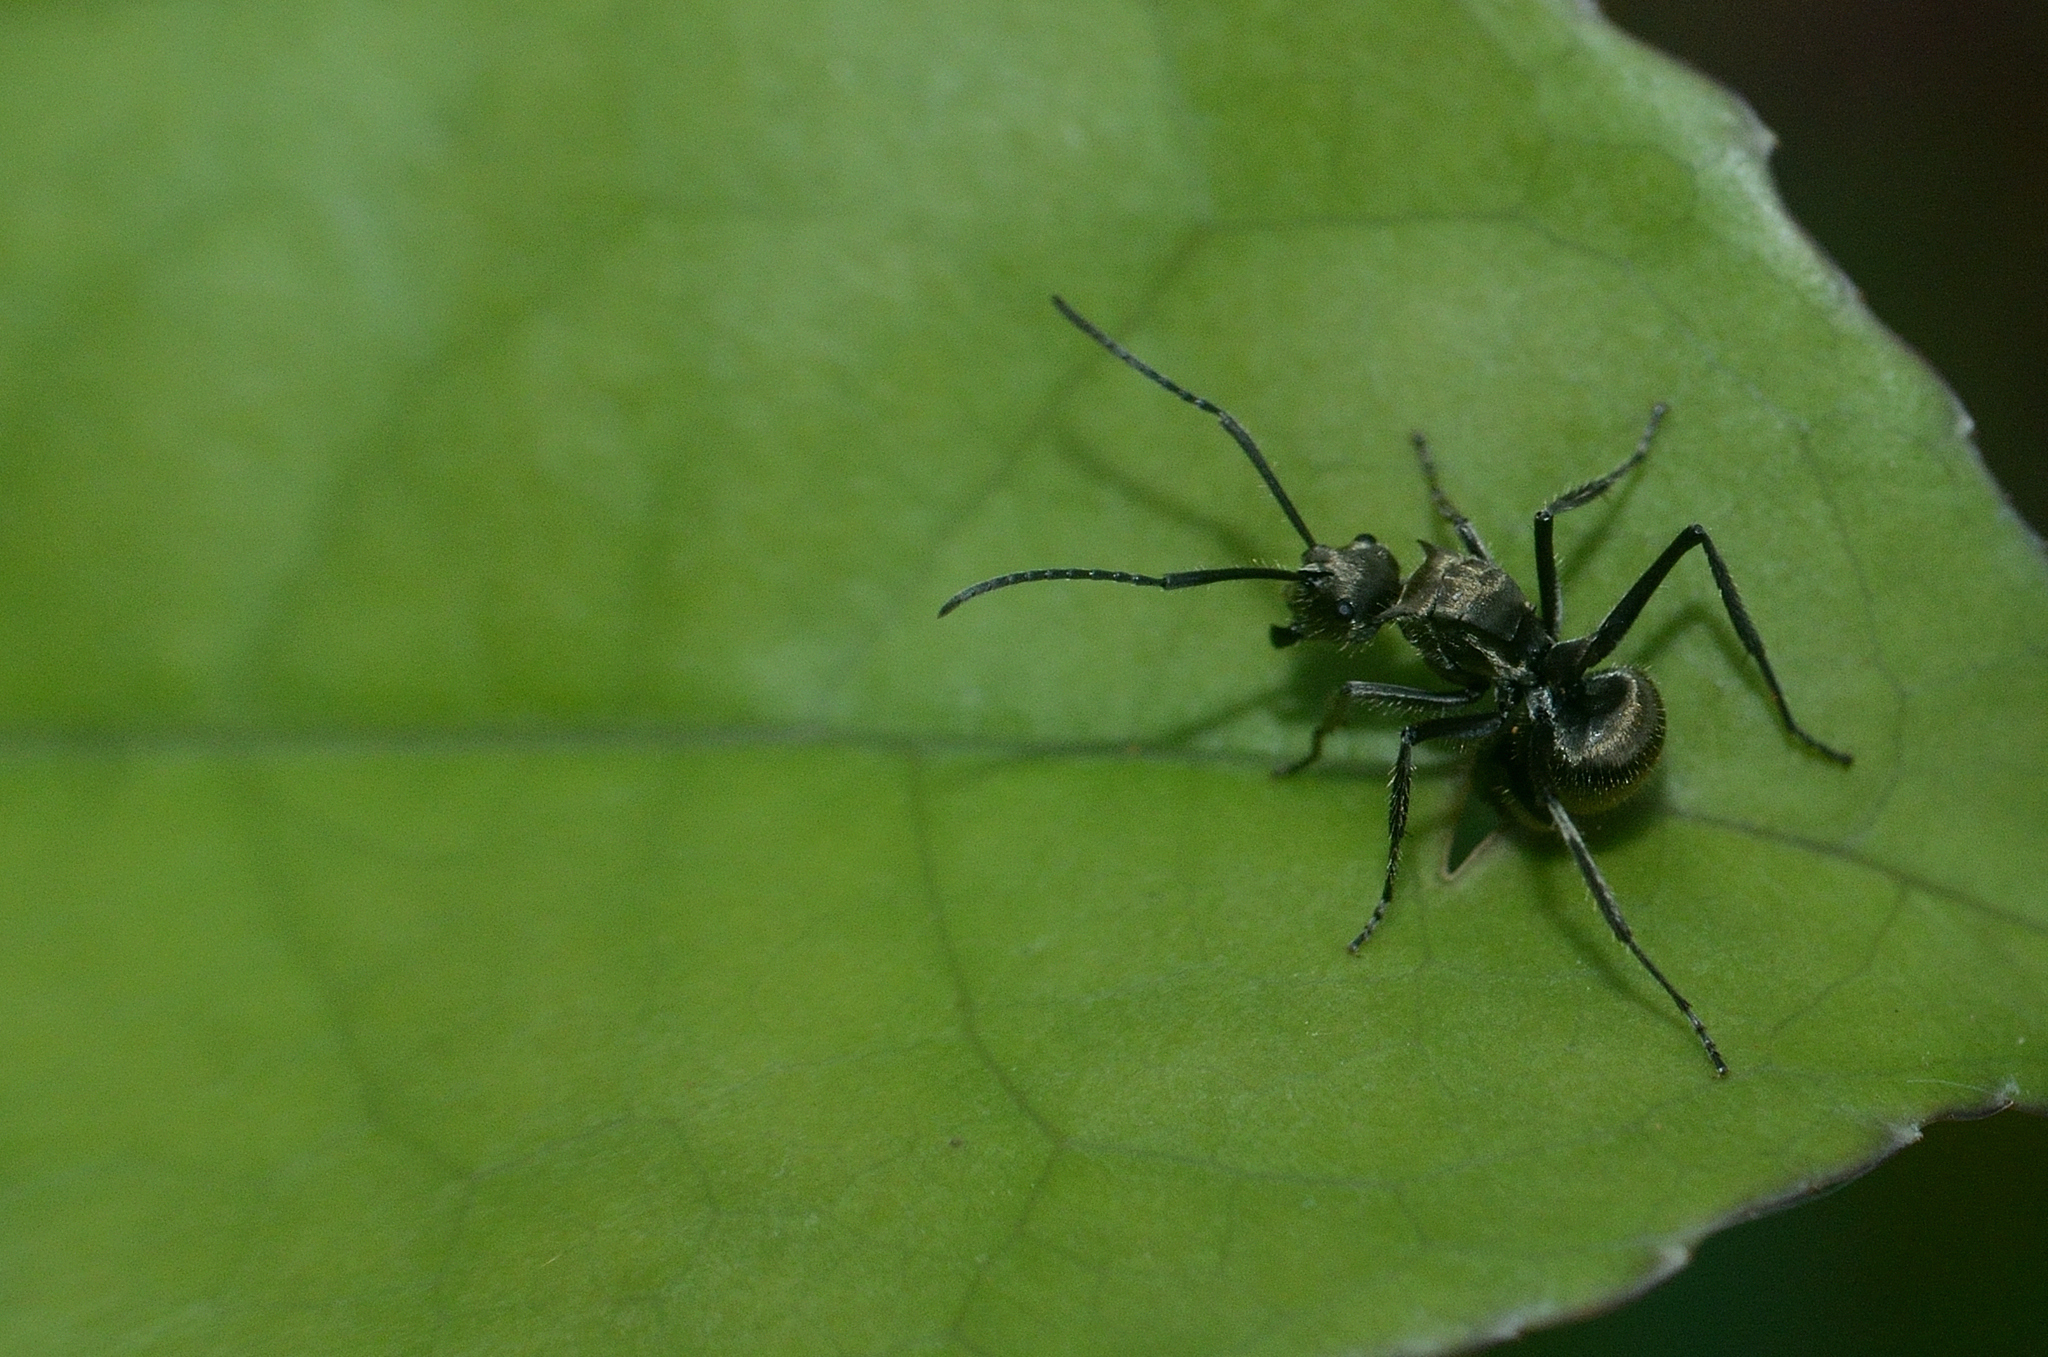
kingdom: Animalia
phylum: Arthropoda
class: Insecta
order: Hymenoptera
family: Formicidae
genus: Polyrhachis
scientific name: Polyrhachis illaudata
